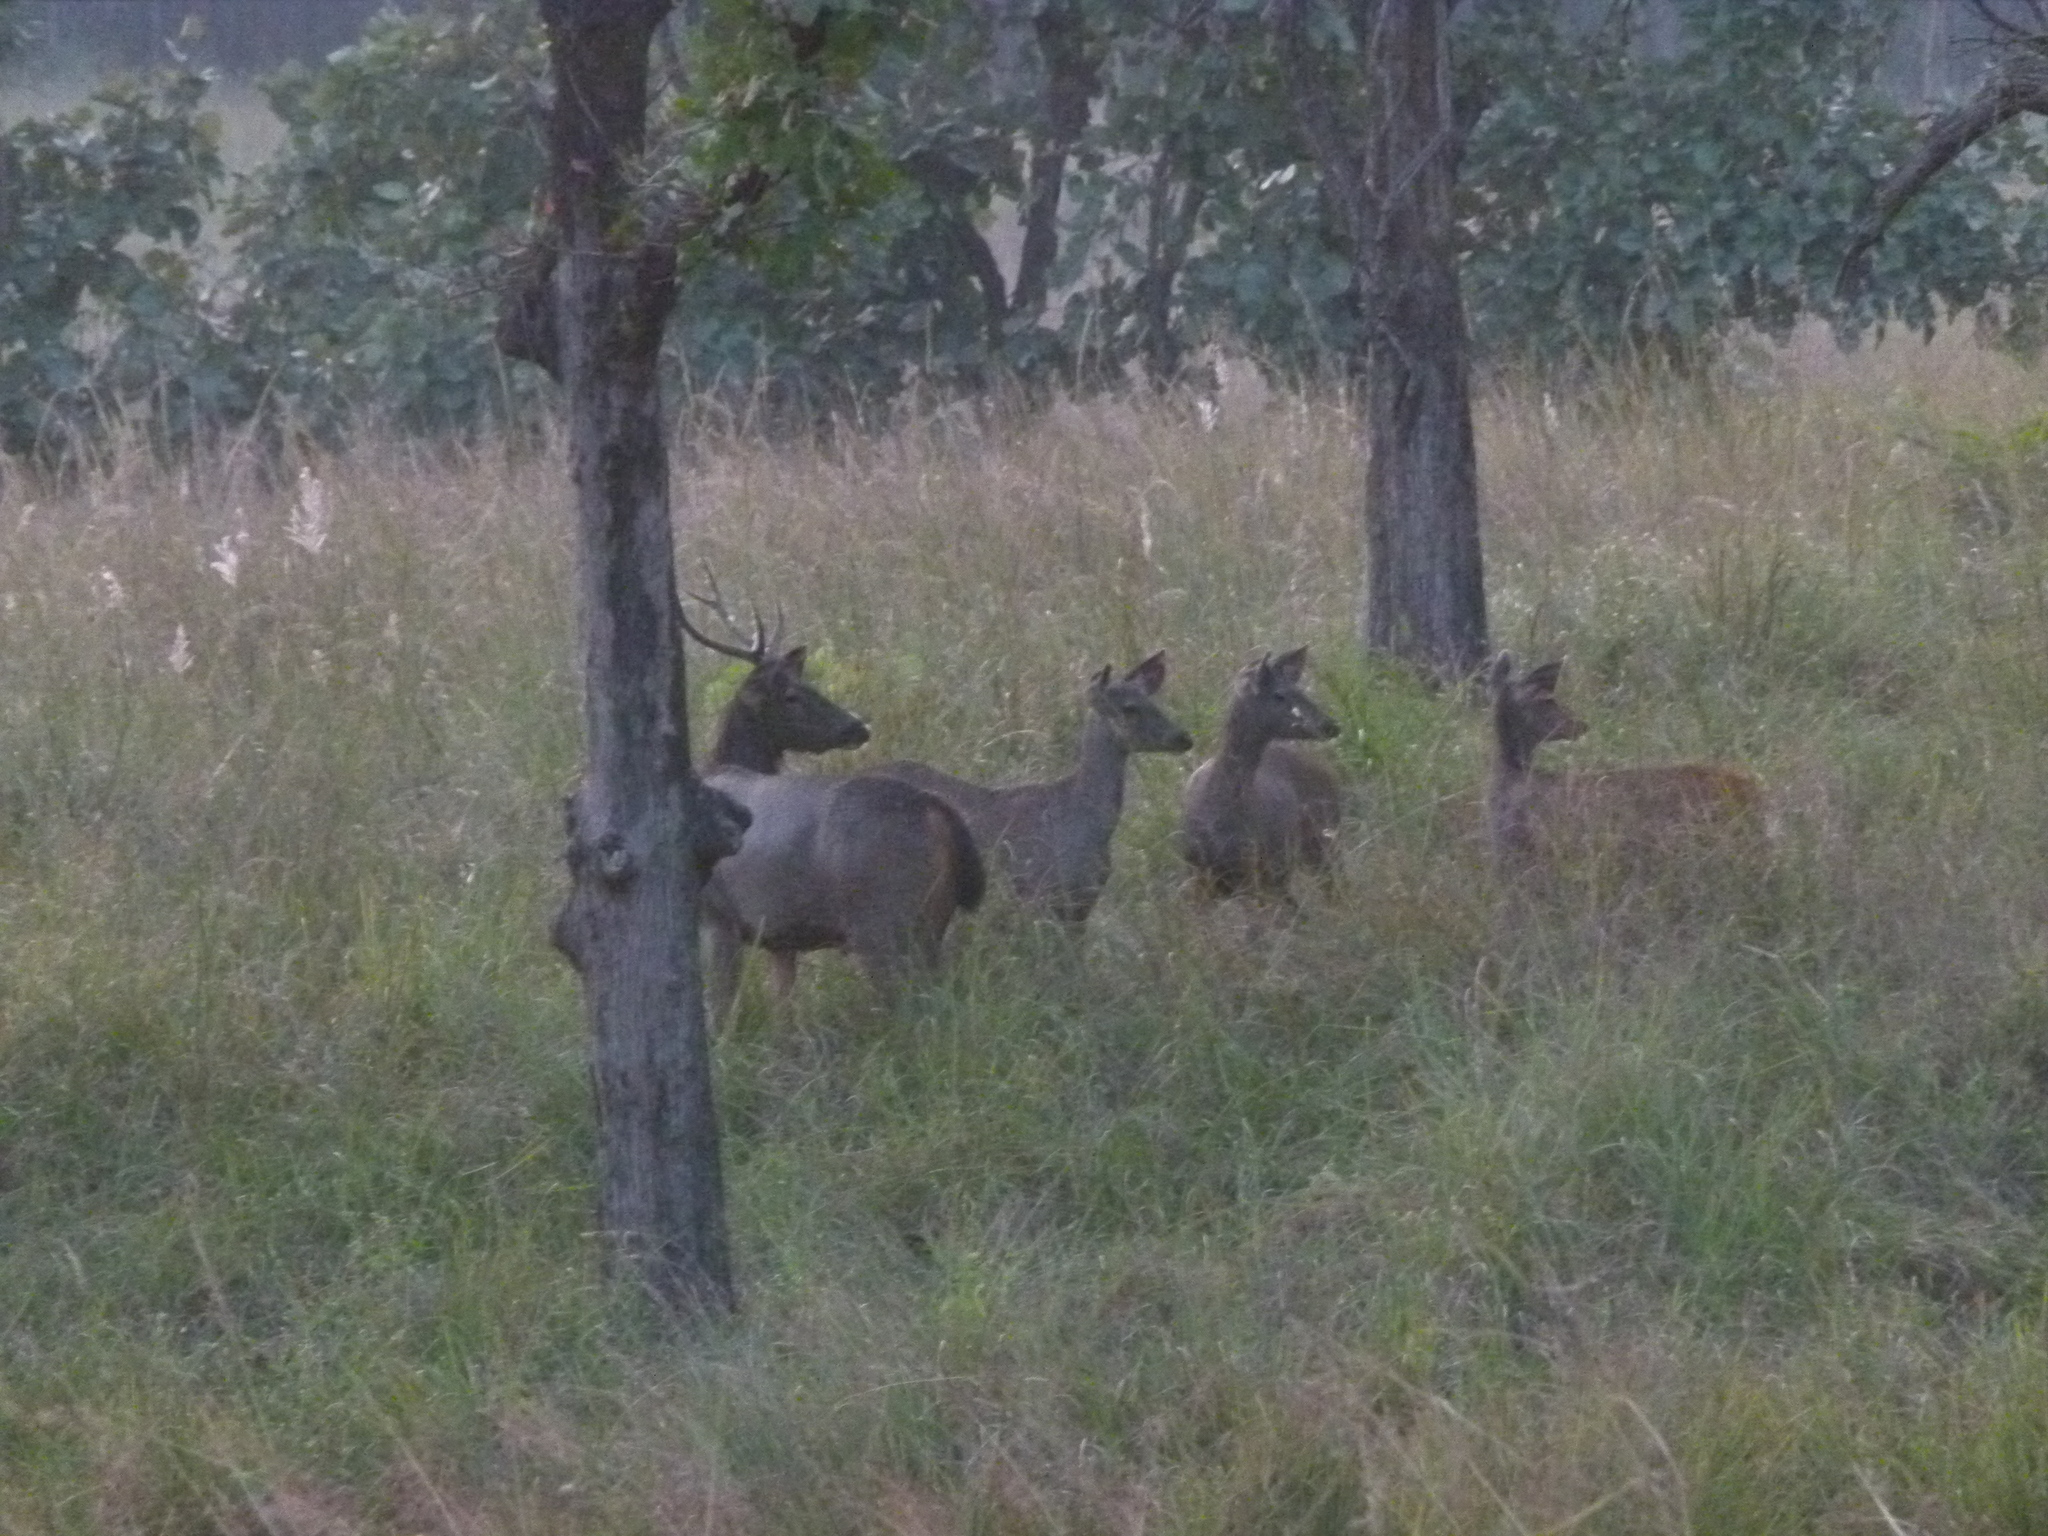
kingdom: Animalia
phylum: Chordata
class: Mammalia
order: Artiodactyla
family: Cervidae
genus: Rusa
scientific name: Rusa unicolor
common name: Sambar
